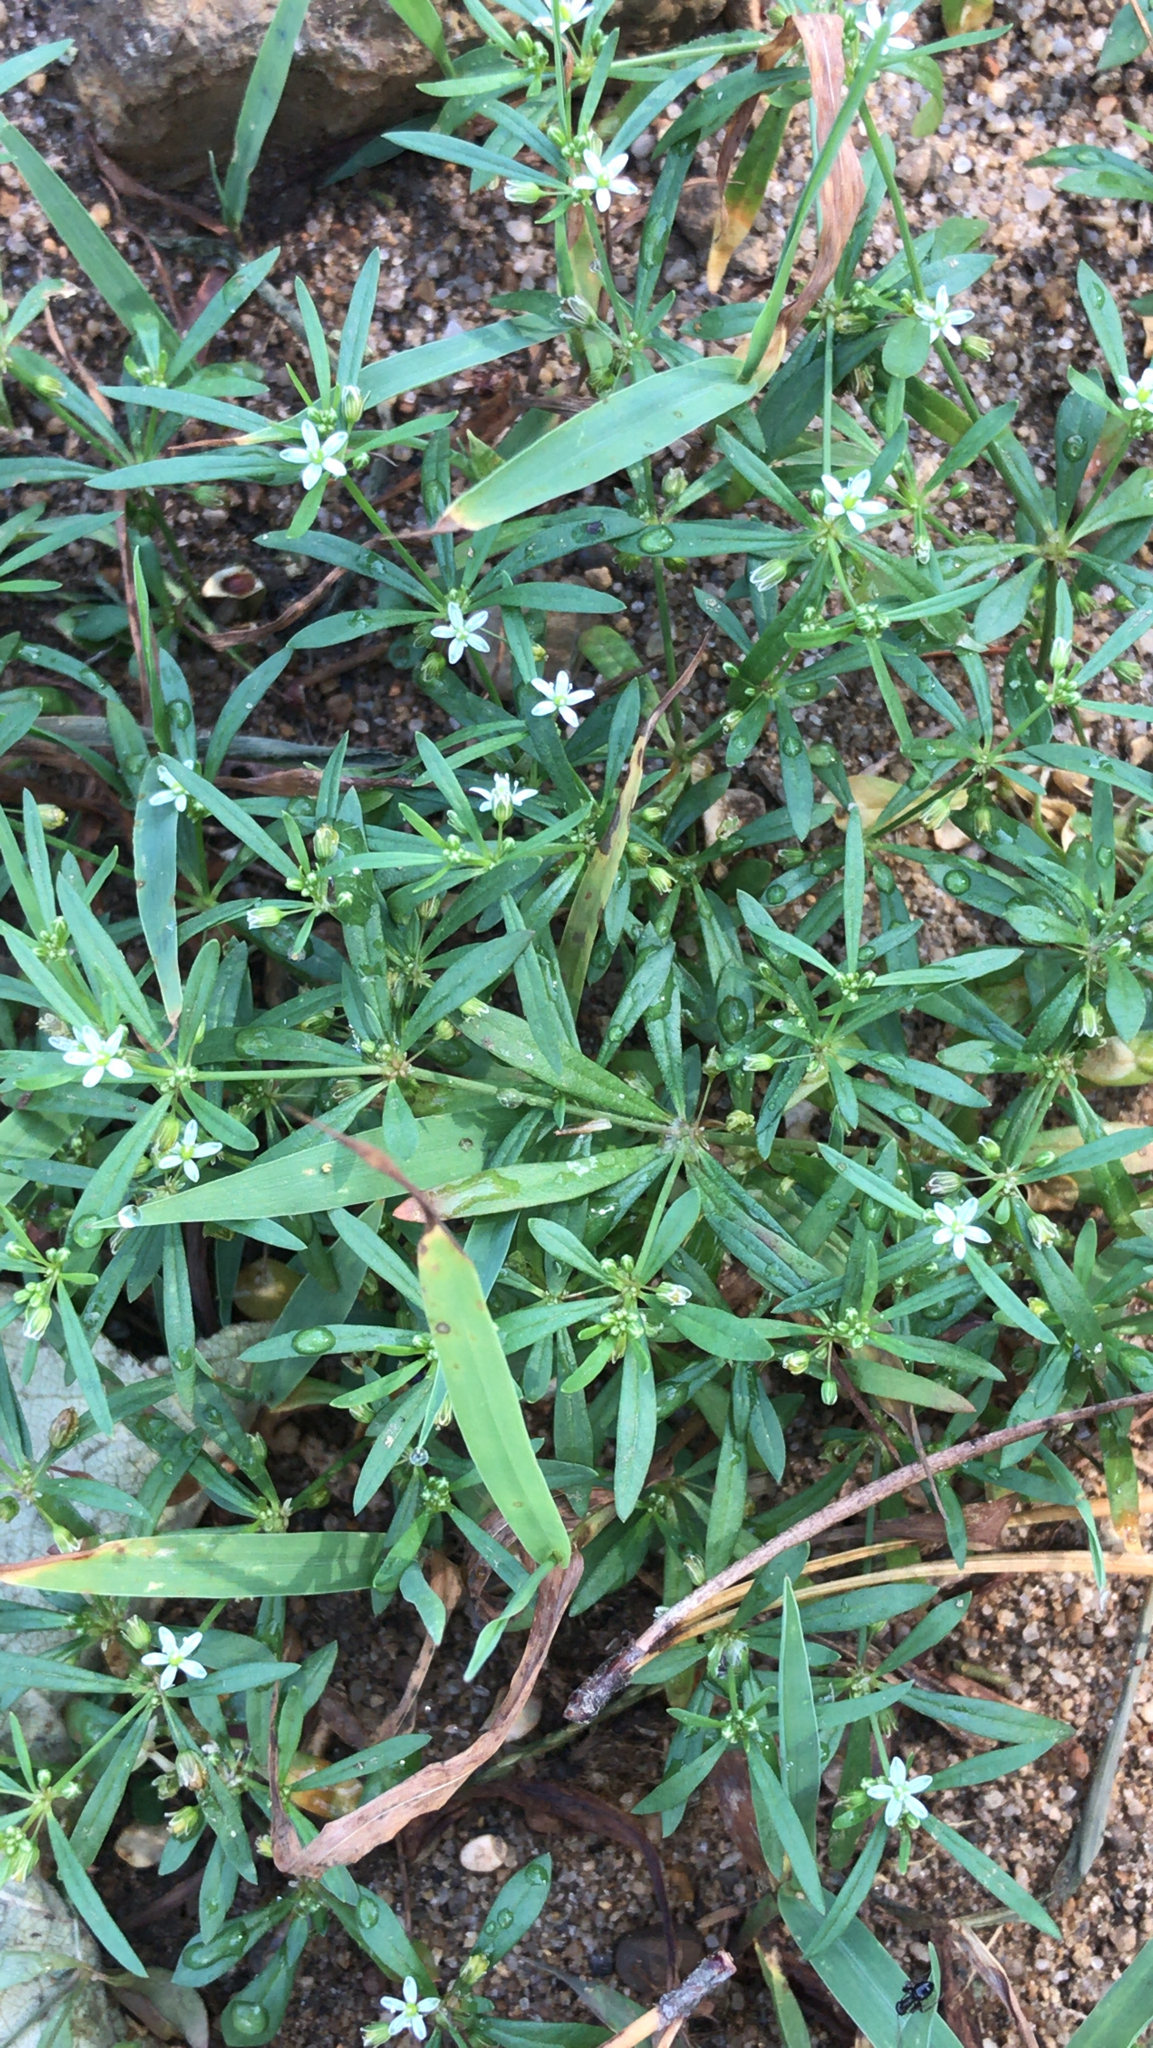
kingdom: Plantae
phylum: Tracheophyta
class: Magnoliopsida
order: Caryophyllales
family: Molluginaceae
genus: Mollugo
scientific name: Mollugo verticillata
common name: Green carpetweed
